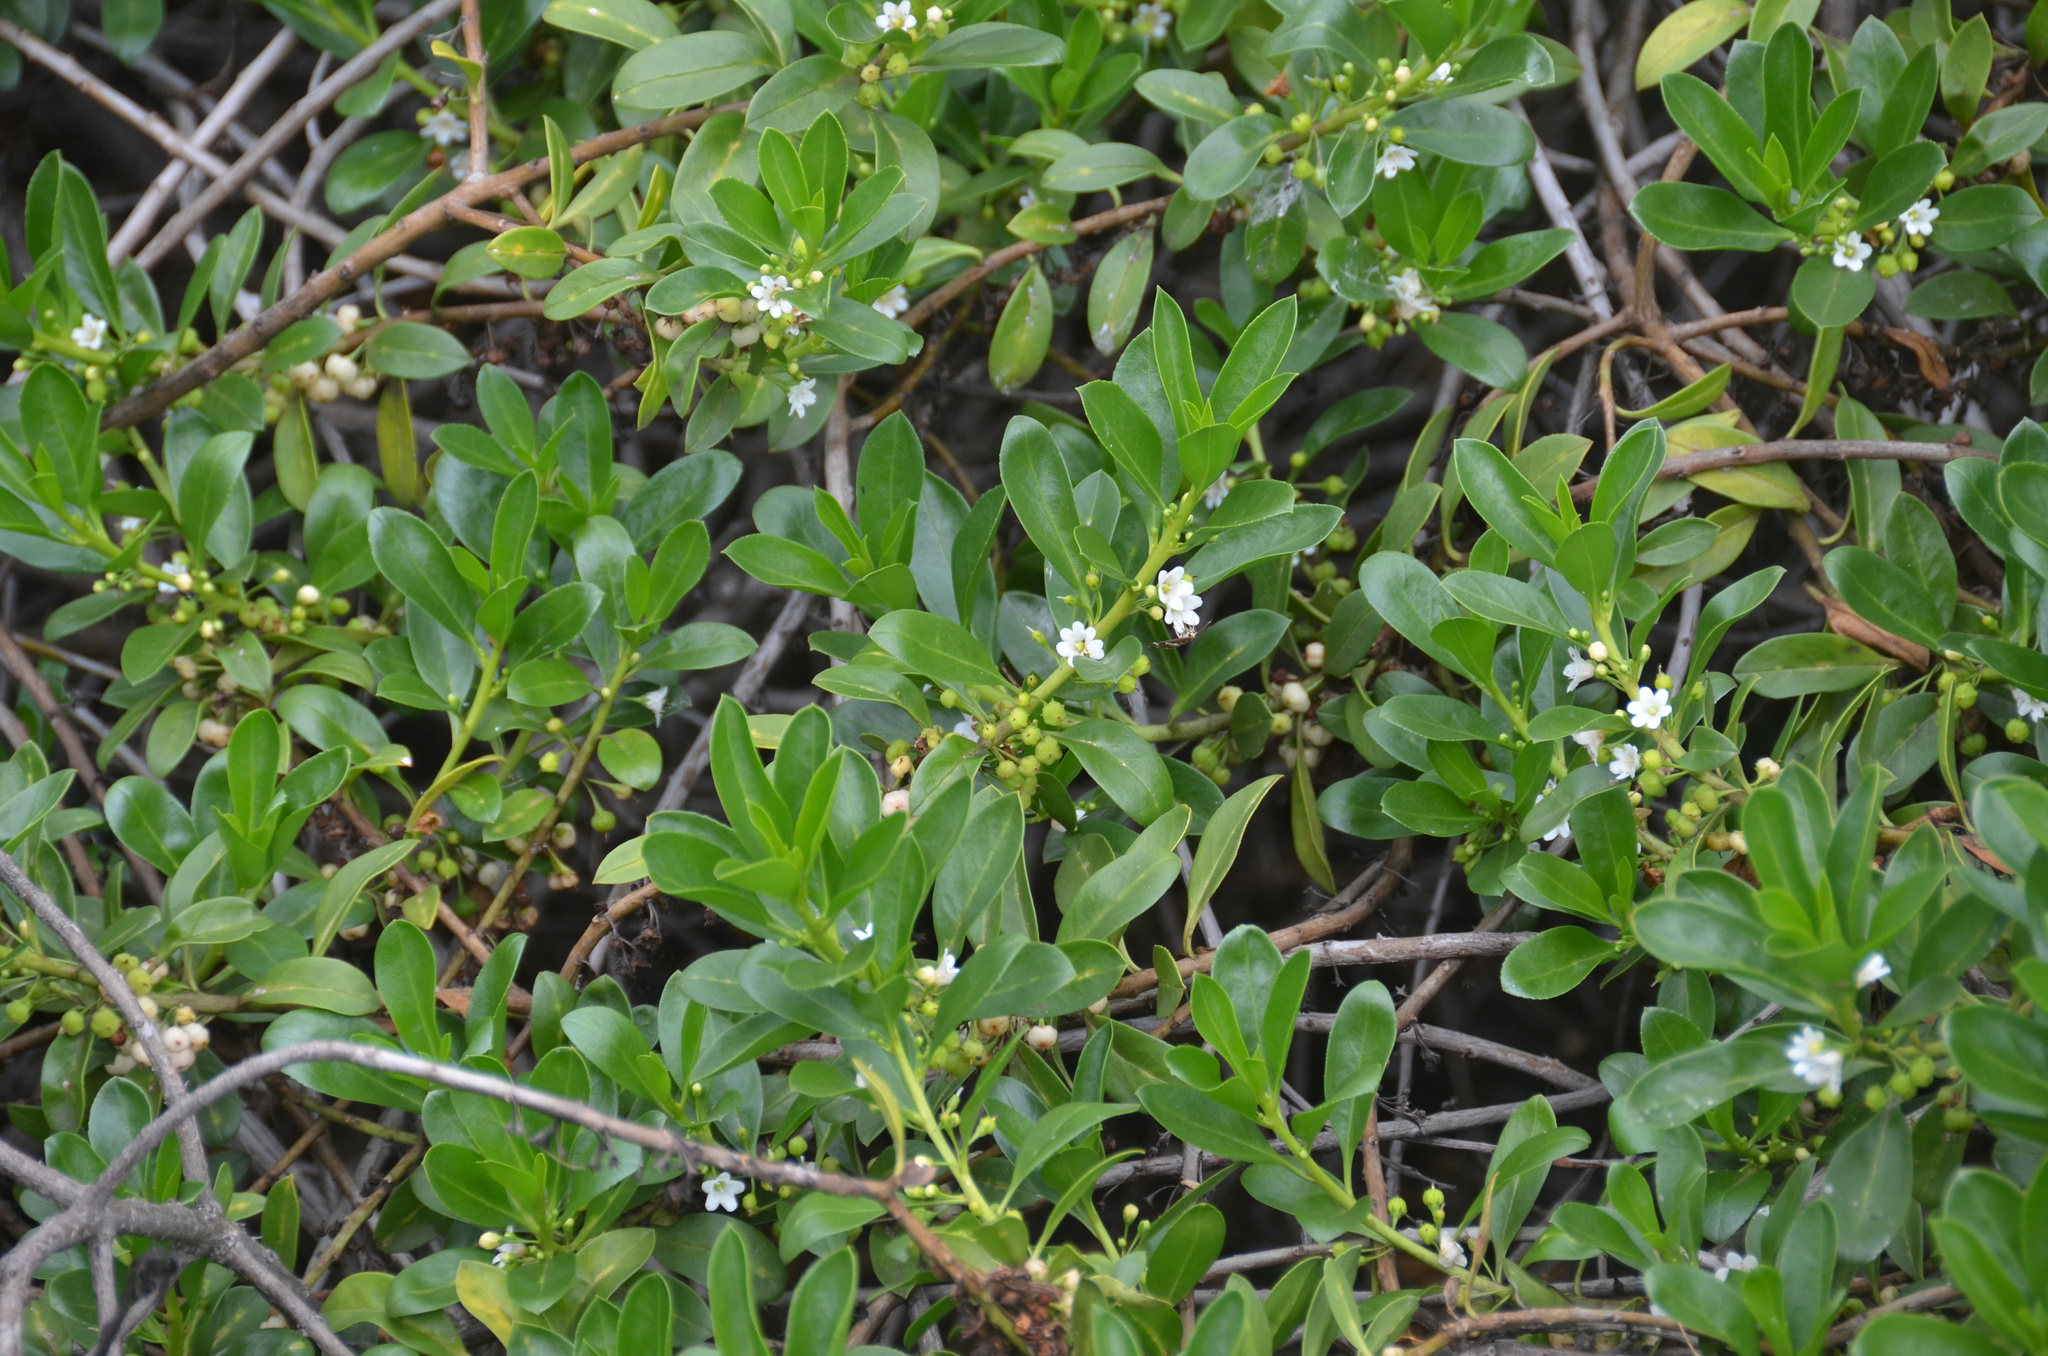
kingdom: Plantae
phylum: Tracheophyta
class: Magnoliopsida
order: Lamiales
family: Scrophulariaceae
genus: Myoporum
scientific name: Myoporum sandwicense
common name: Bastard-sandalwood
